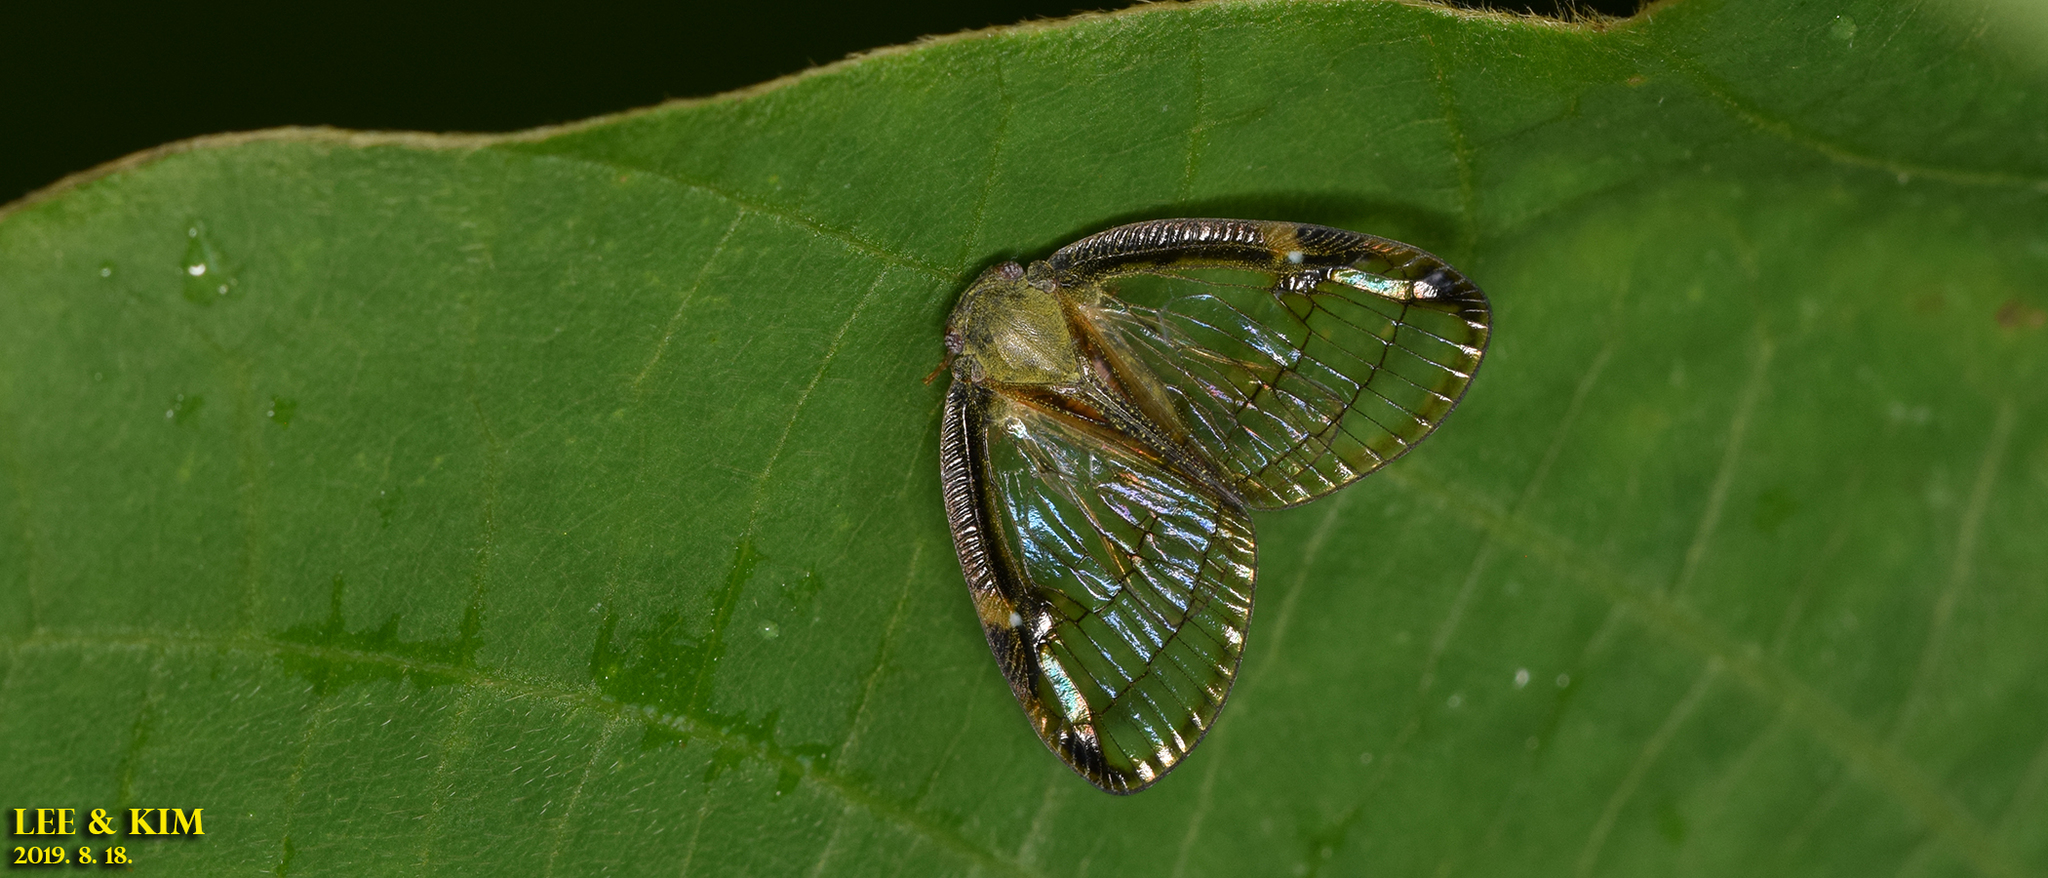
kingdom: Animalia
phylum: Arthropoda
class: Insecta
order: Hemiptera
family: Ricaniidae
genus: Euricania
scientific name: Euricania clara
